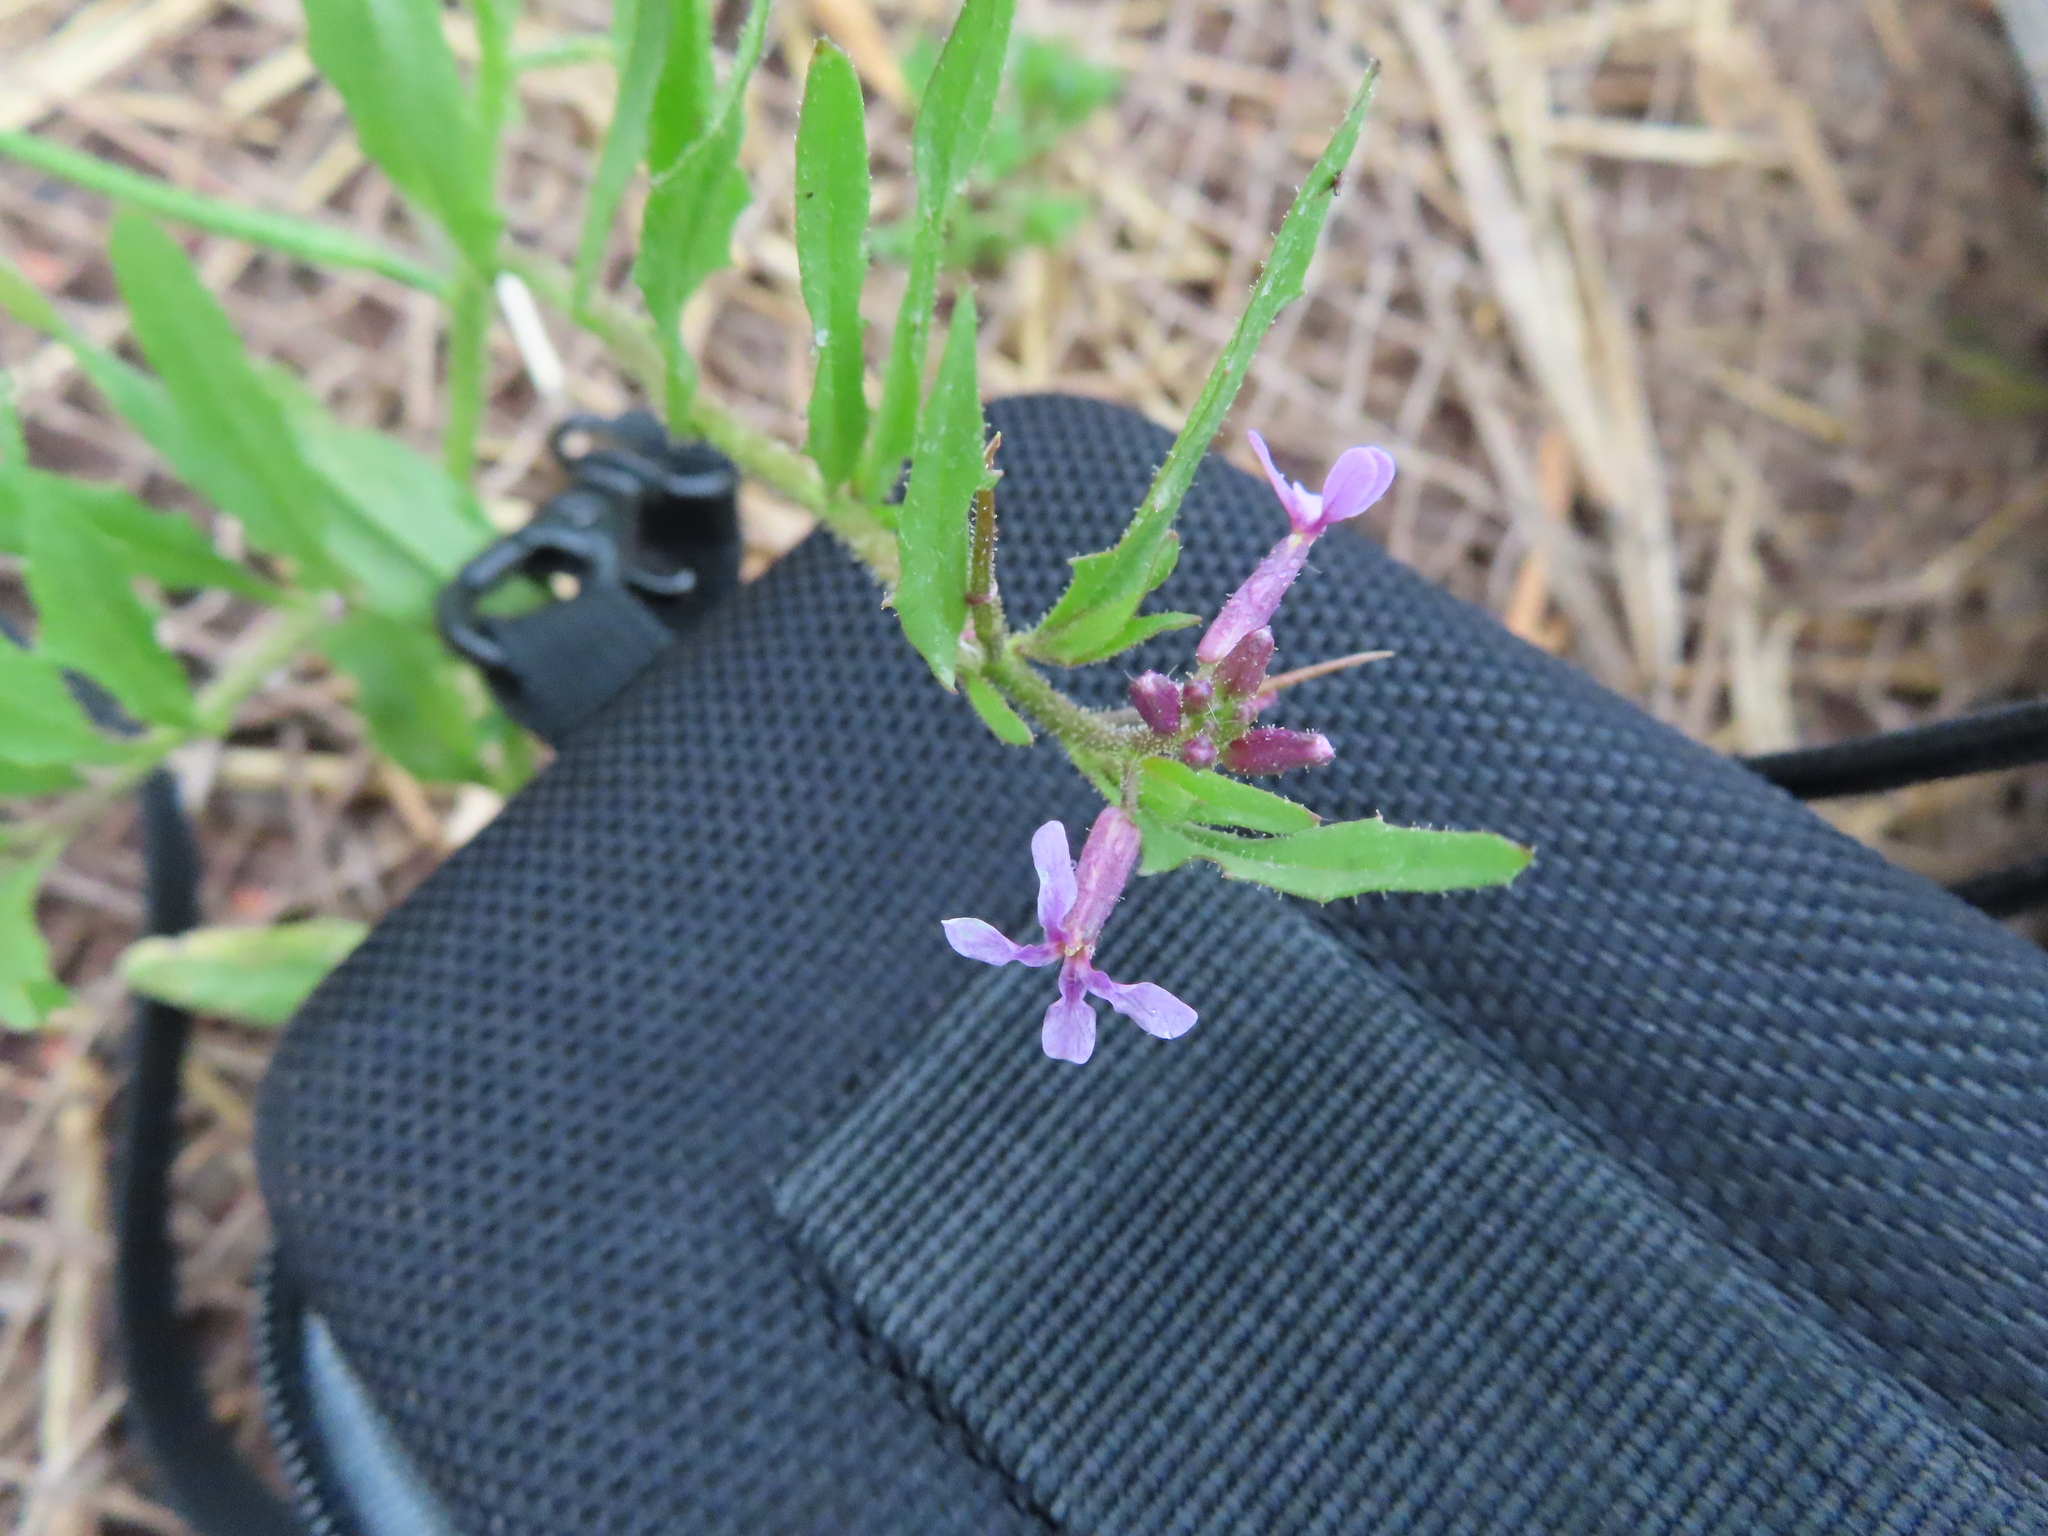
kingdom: Plantae
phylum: Tracheophyta
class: Magnoliopsida
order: Brassicales
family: Brassicaceae
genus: Chorispora
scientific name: Chorispora tenella
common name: Crossflower
